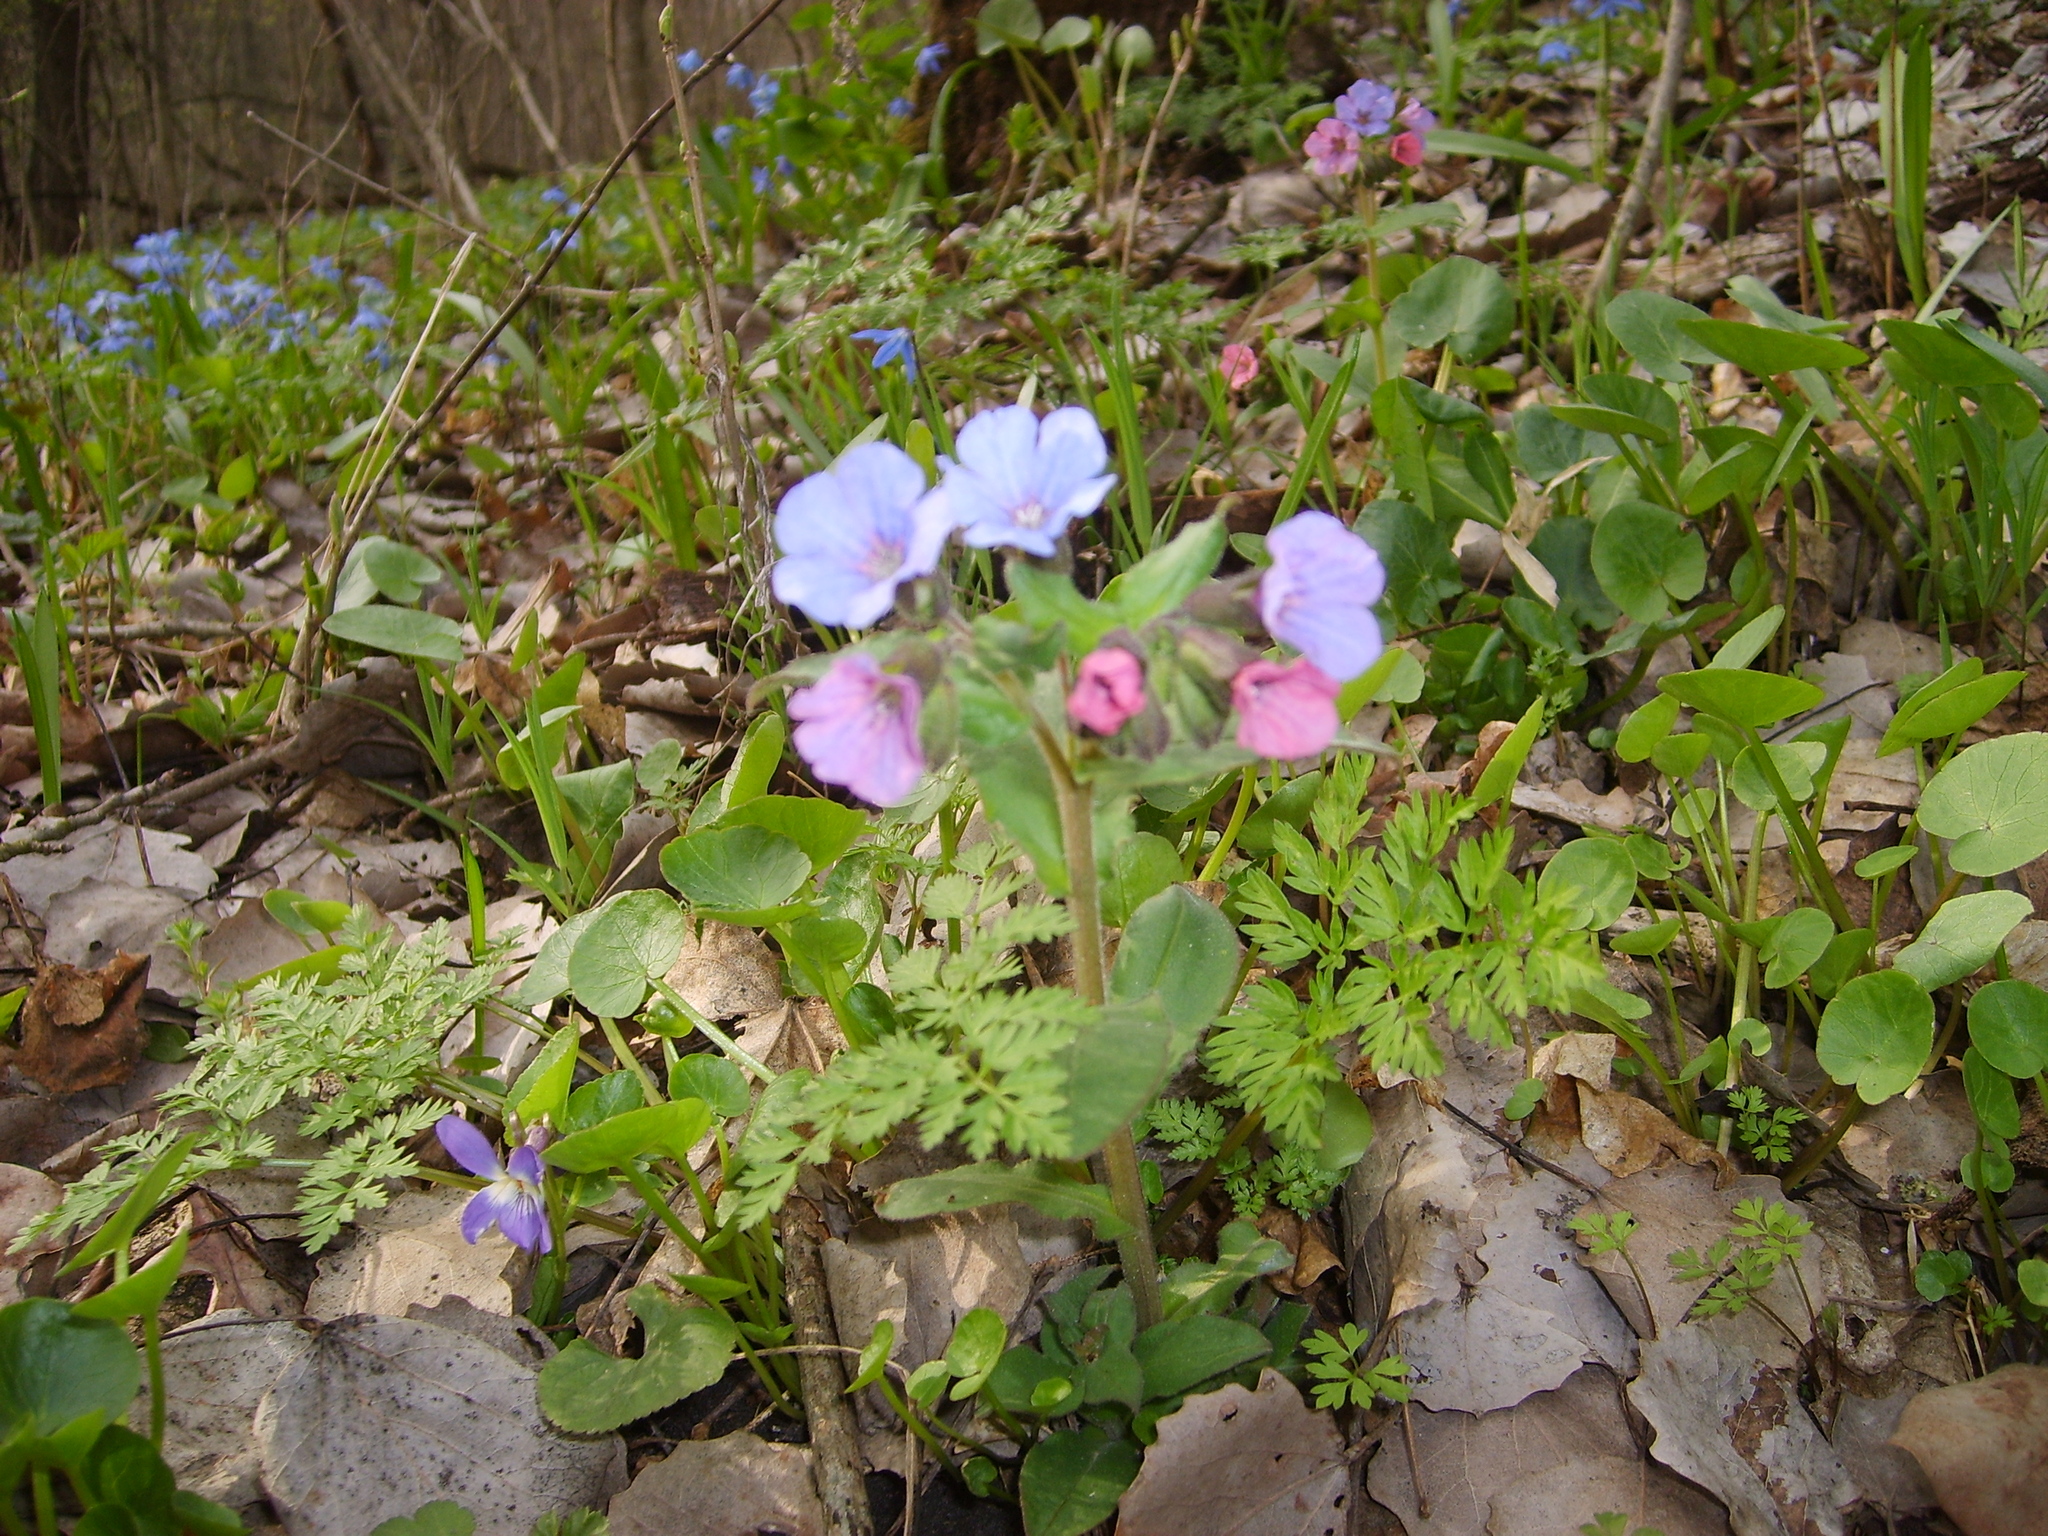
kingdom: Plantae
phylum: Tracheophyta
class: Magnoliopsida
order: Boraginales
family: Boraginaceae
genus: Pulmonaria
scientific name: Pulmonaria obscura
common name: Suffolk lungwort
